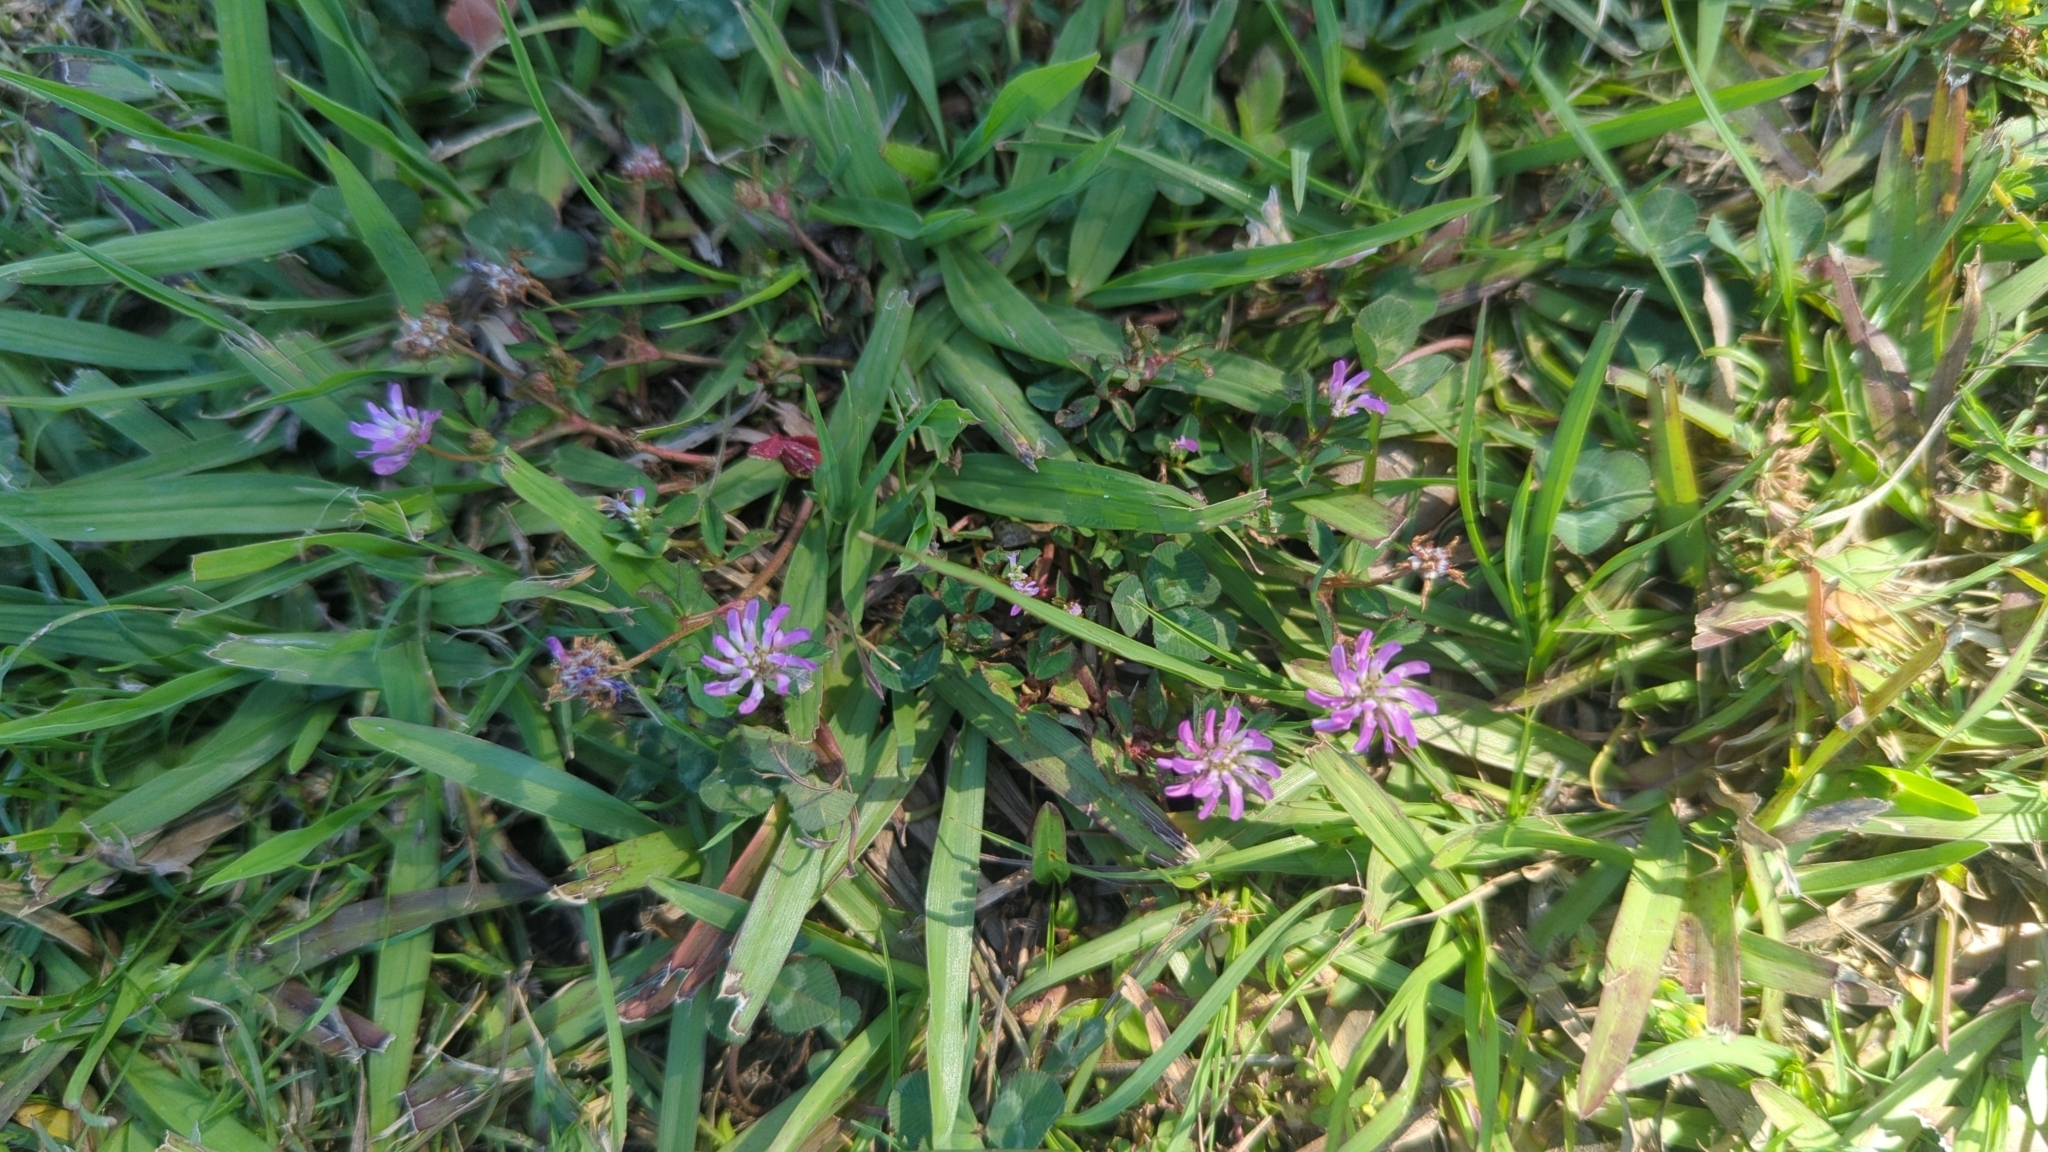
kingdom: Plantae
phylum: Tracheophyta
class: Magnoliopsida
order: Fabales
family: Fabaceae
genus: Trifolium
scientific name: Trifolium resupinatum
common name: Reversed clover
